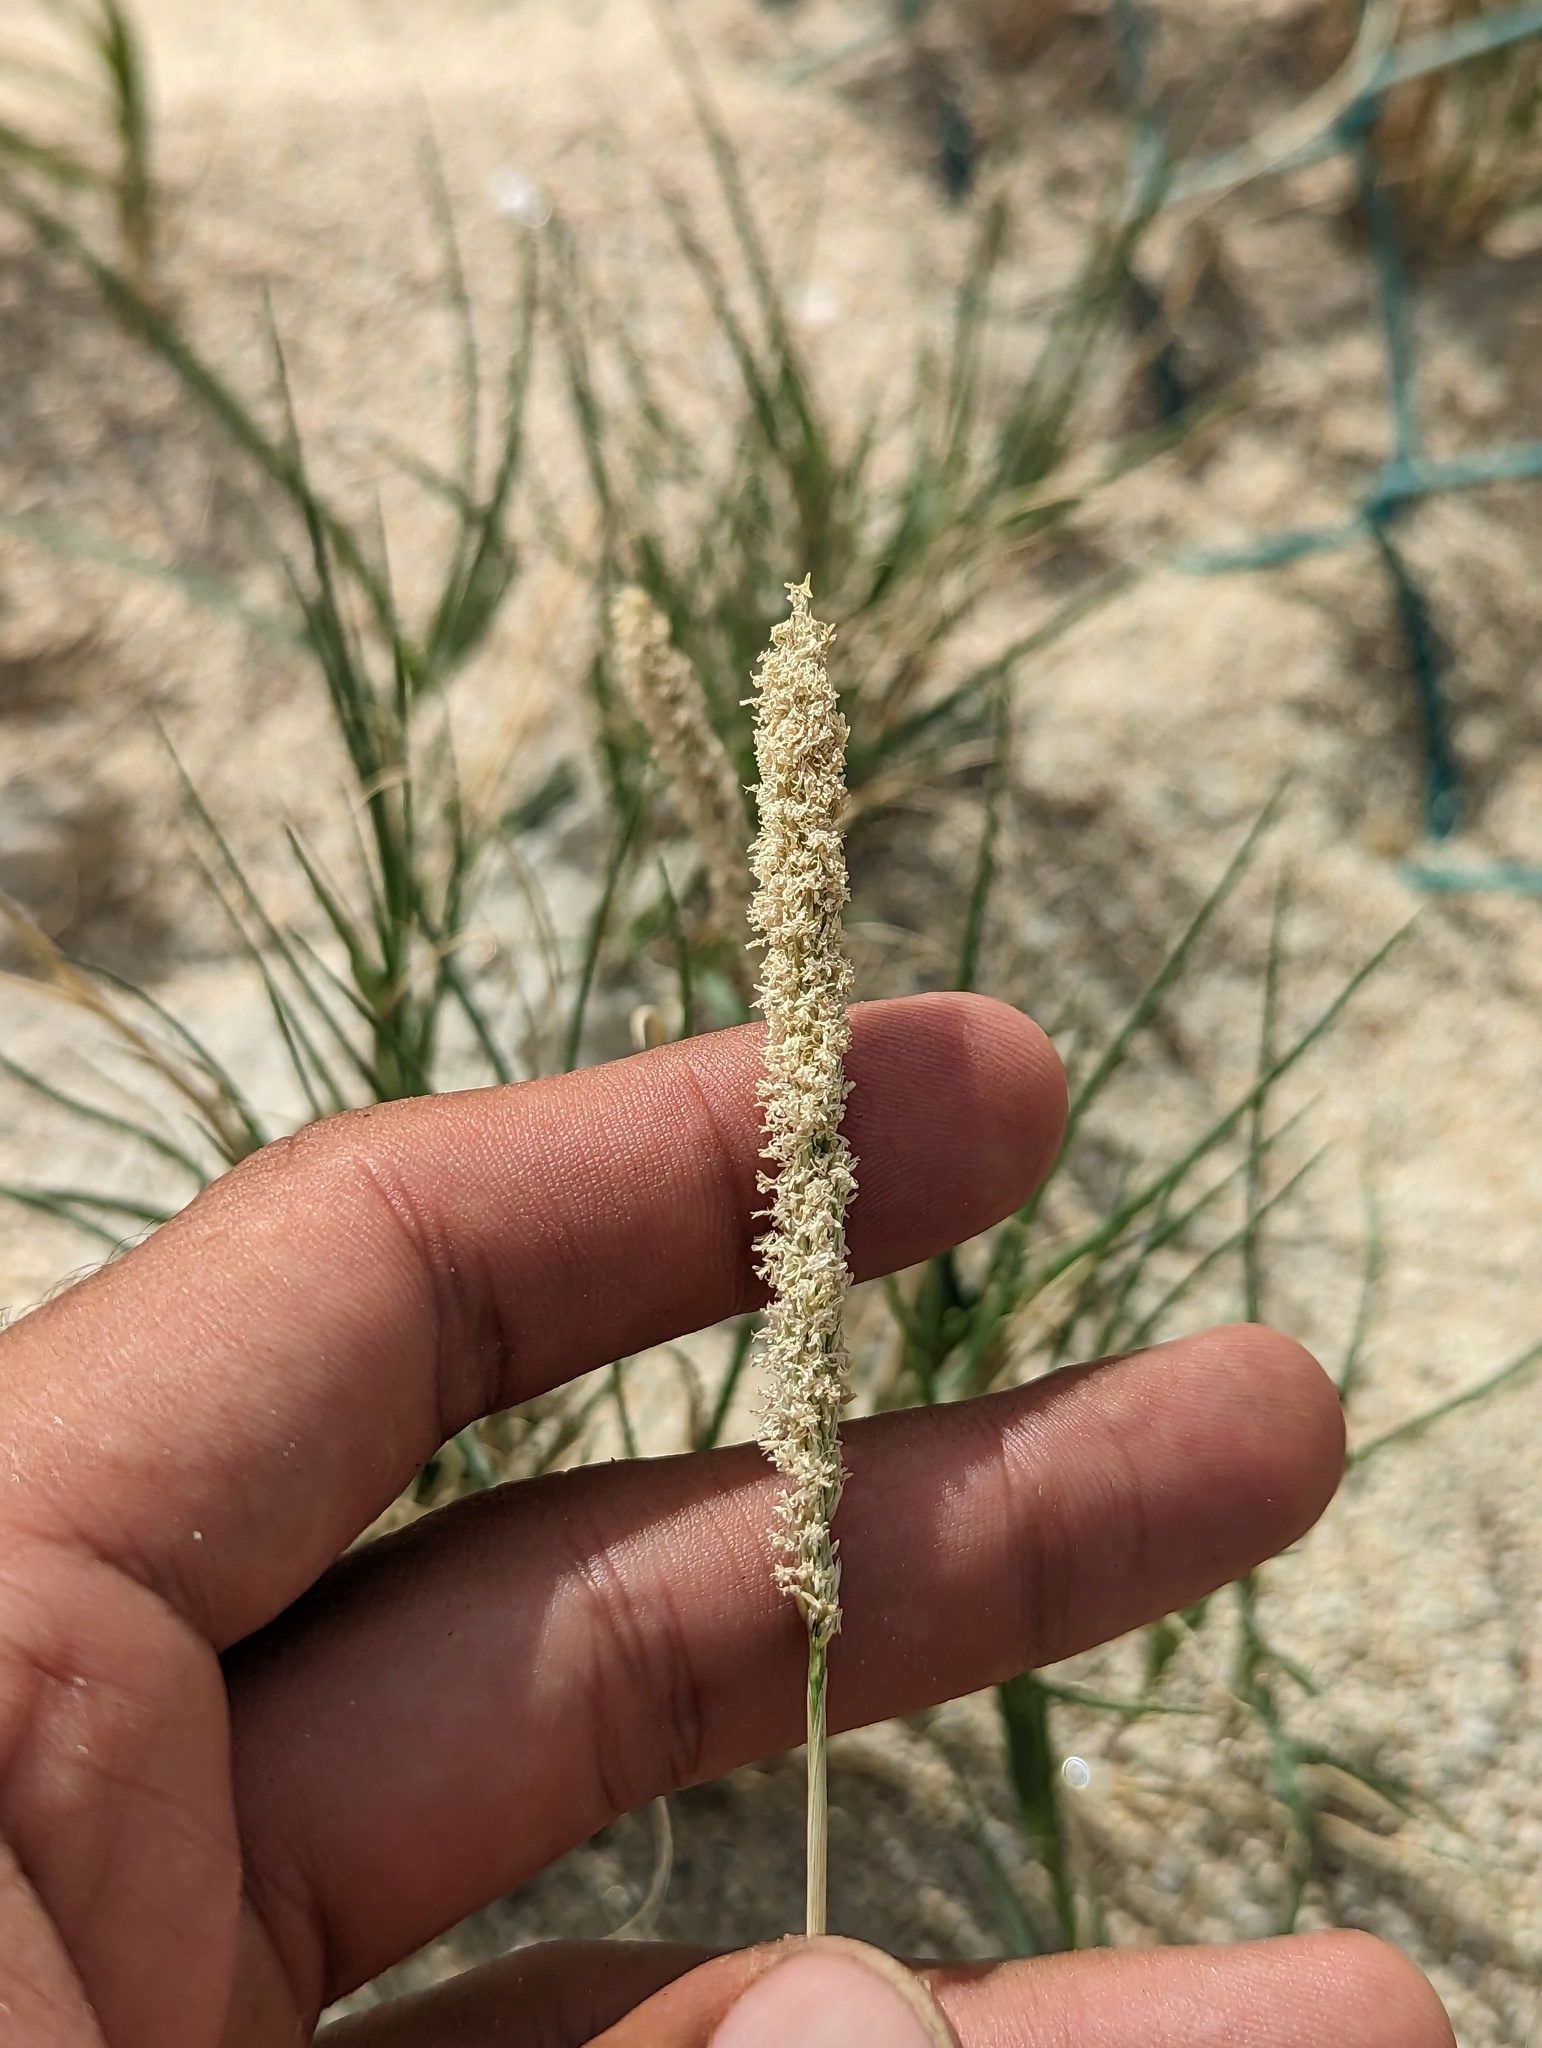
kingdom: Plantae
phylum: Tracheophyta
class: Liliopsida
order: Poales
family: Poaceae
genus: Sporobolus
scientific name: Sporobolus virginicus
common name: Beach dropseed
